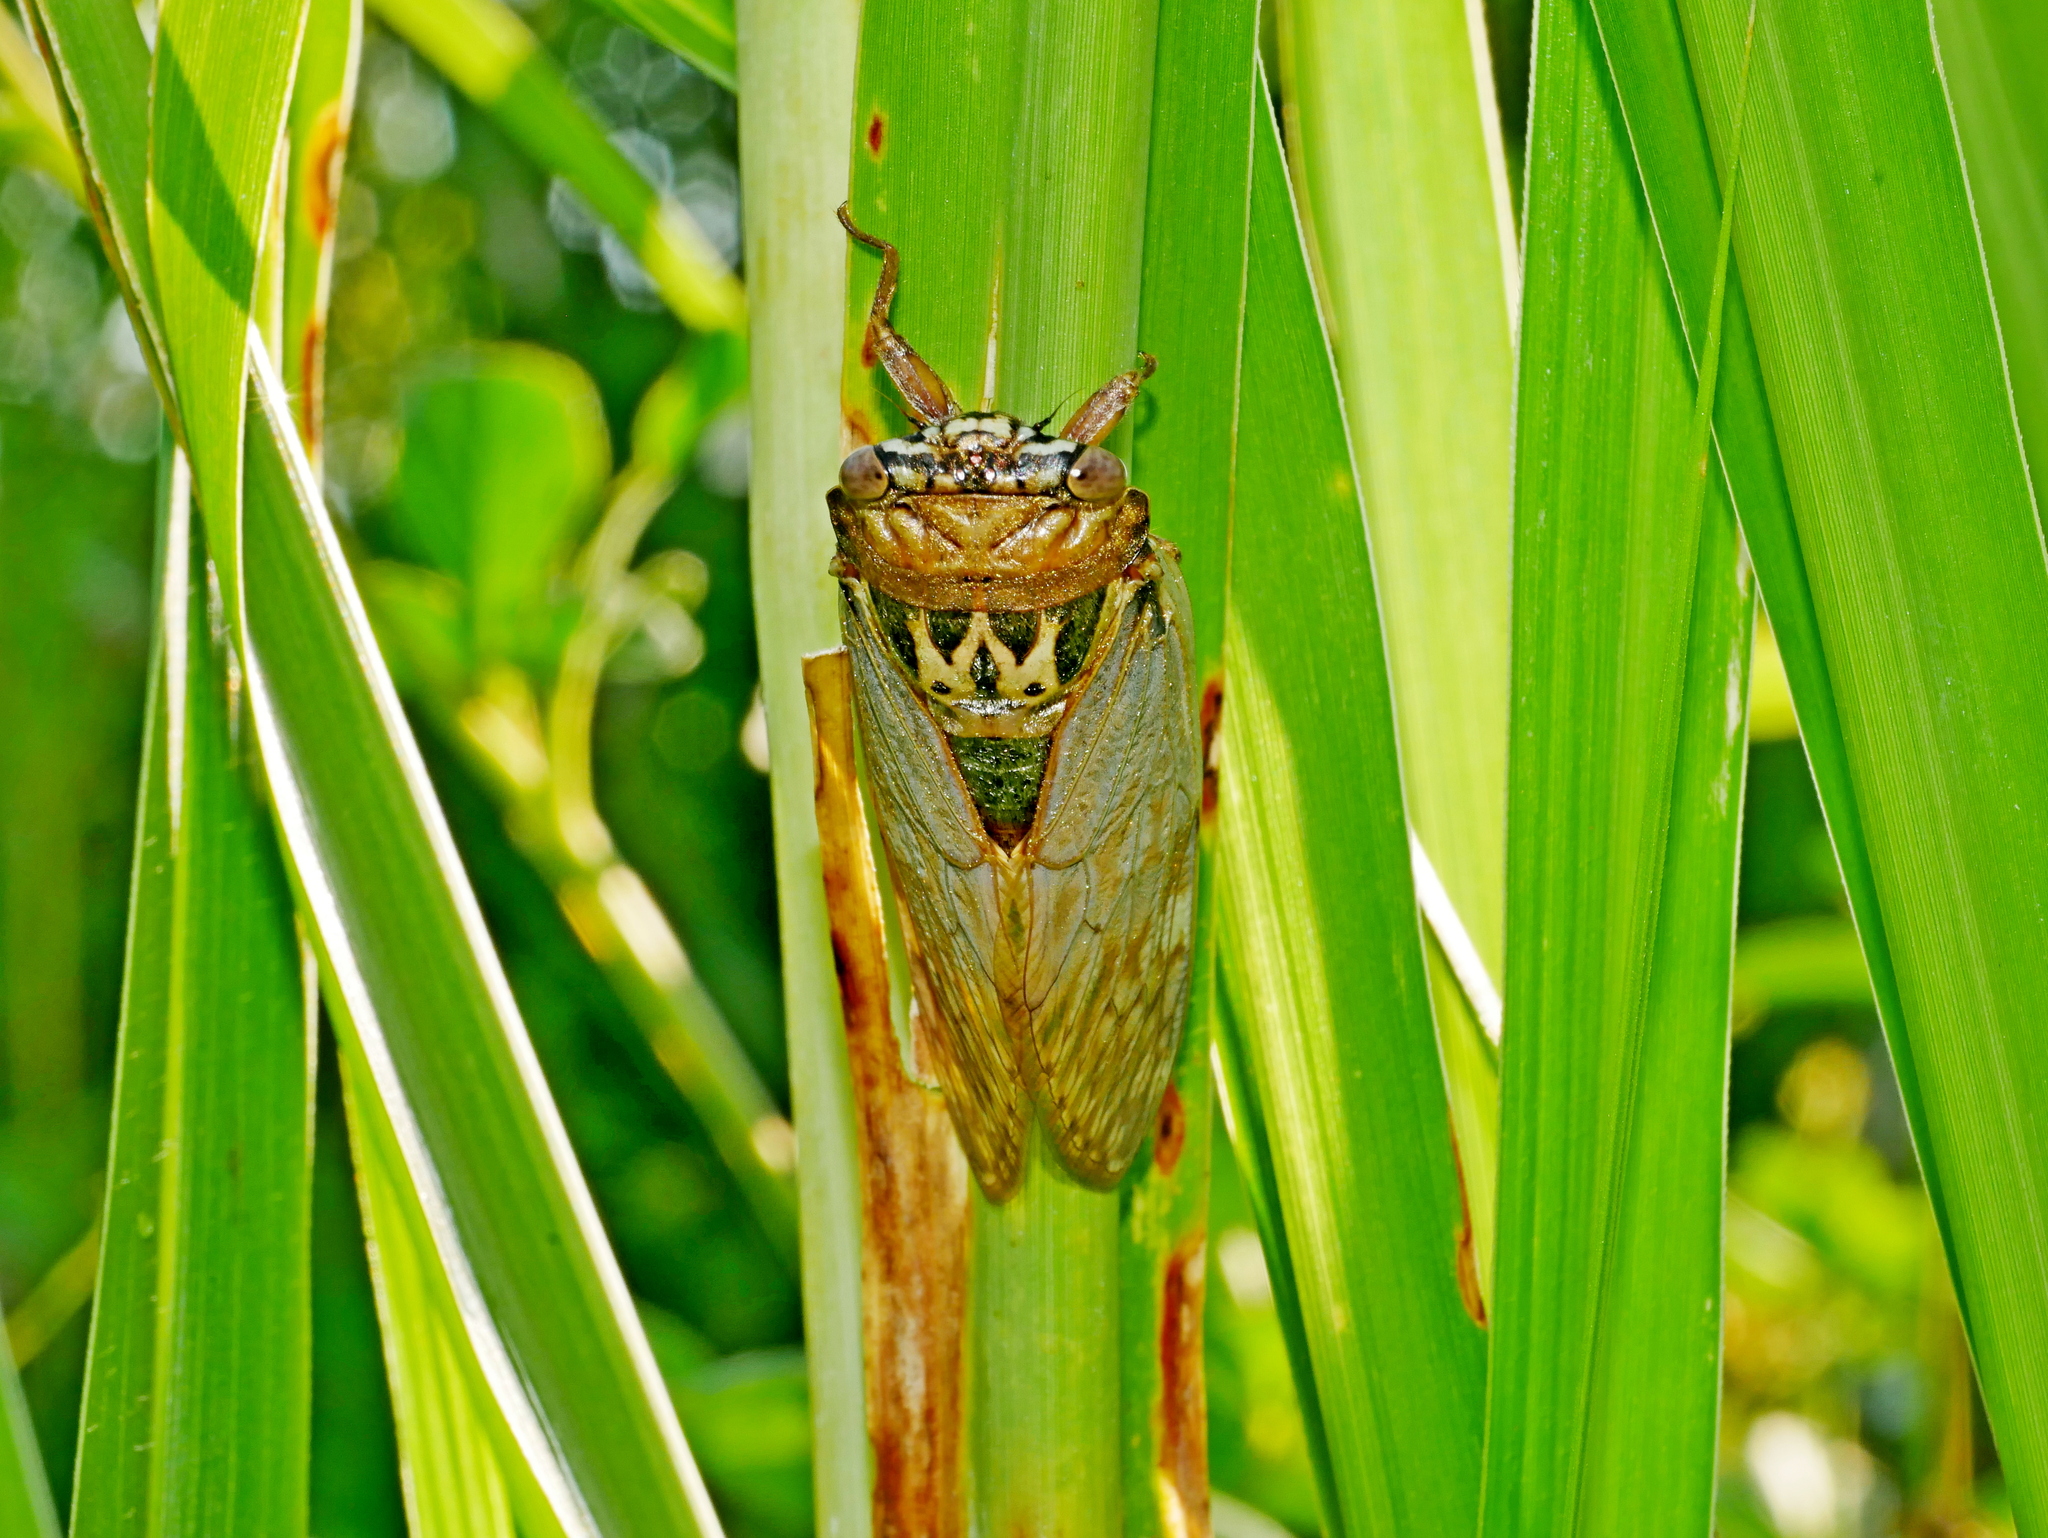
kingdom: Animalia
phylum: Arthropoda
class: Insecta
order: Hemiptera
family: Cicadidae
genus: Platypleura
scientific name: Platypleura hilpa
